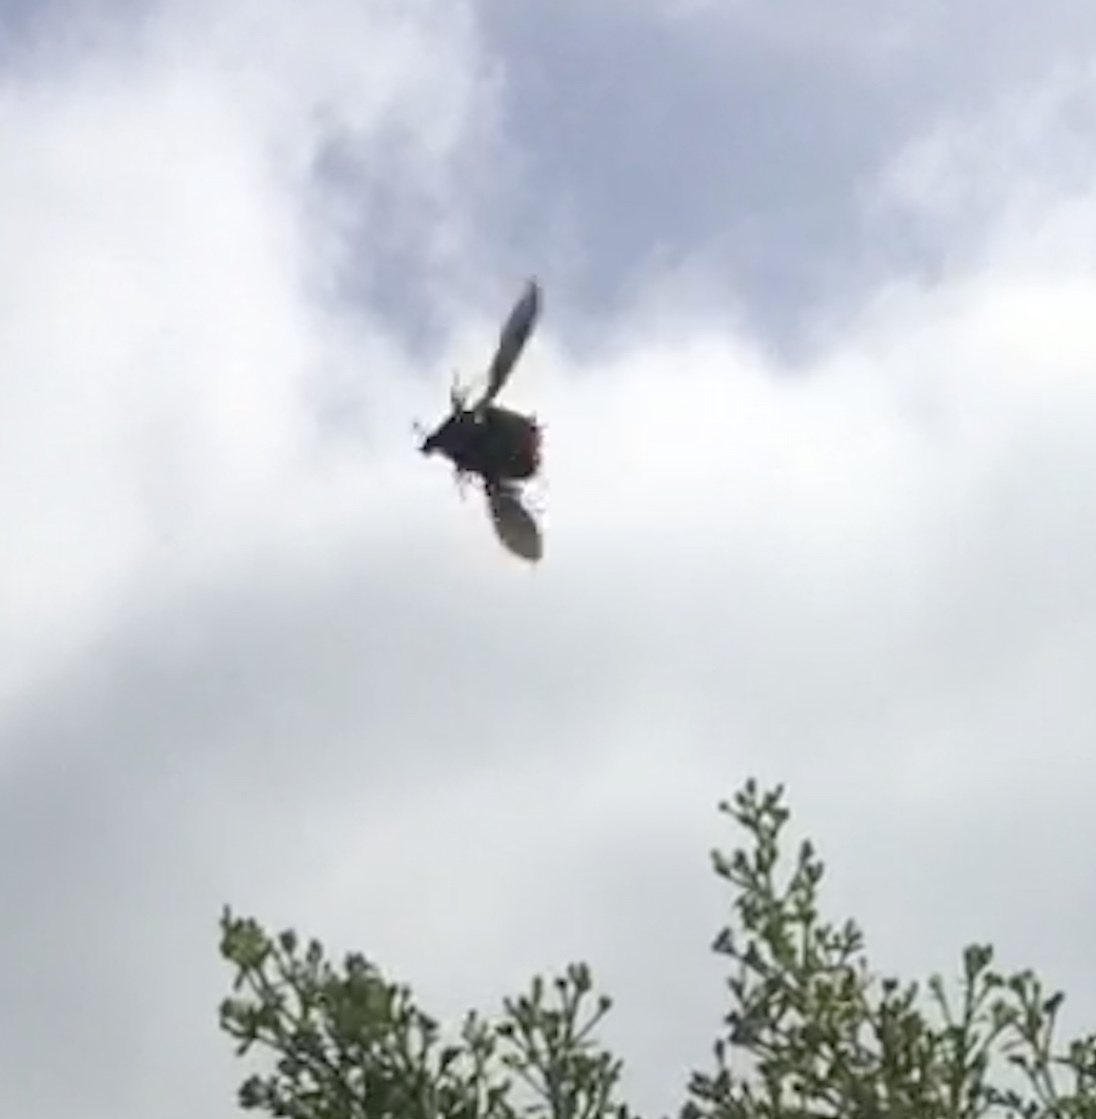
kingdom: Animalia
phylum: Arthropoda
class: Insecta
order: Coleoptera
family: Scarabaeidae
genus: Cotinis
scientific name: Cotinis mutabilis
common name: Figeater beetle
